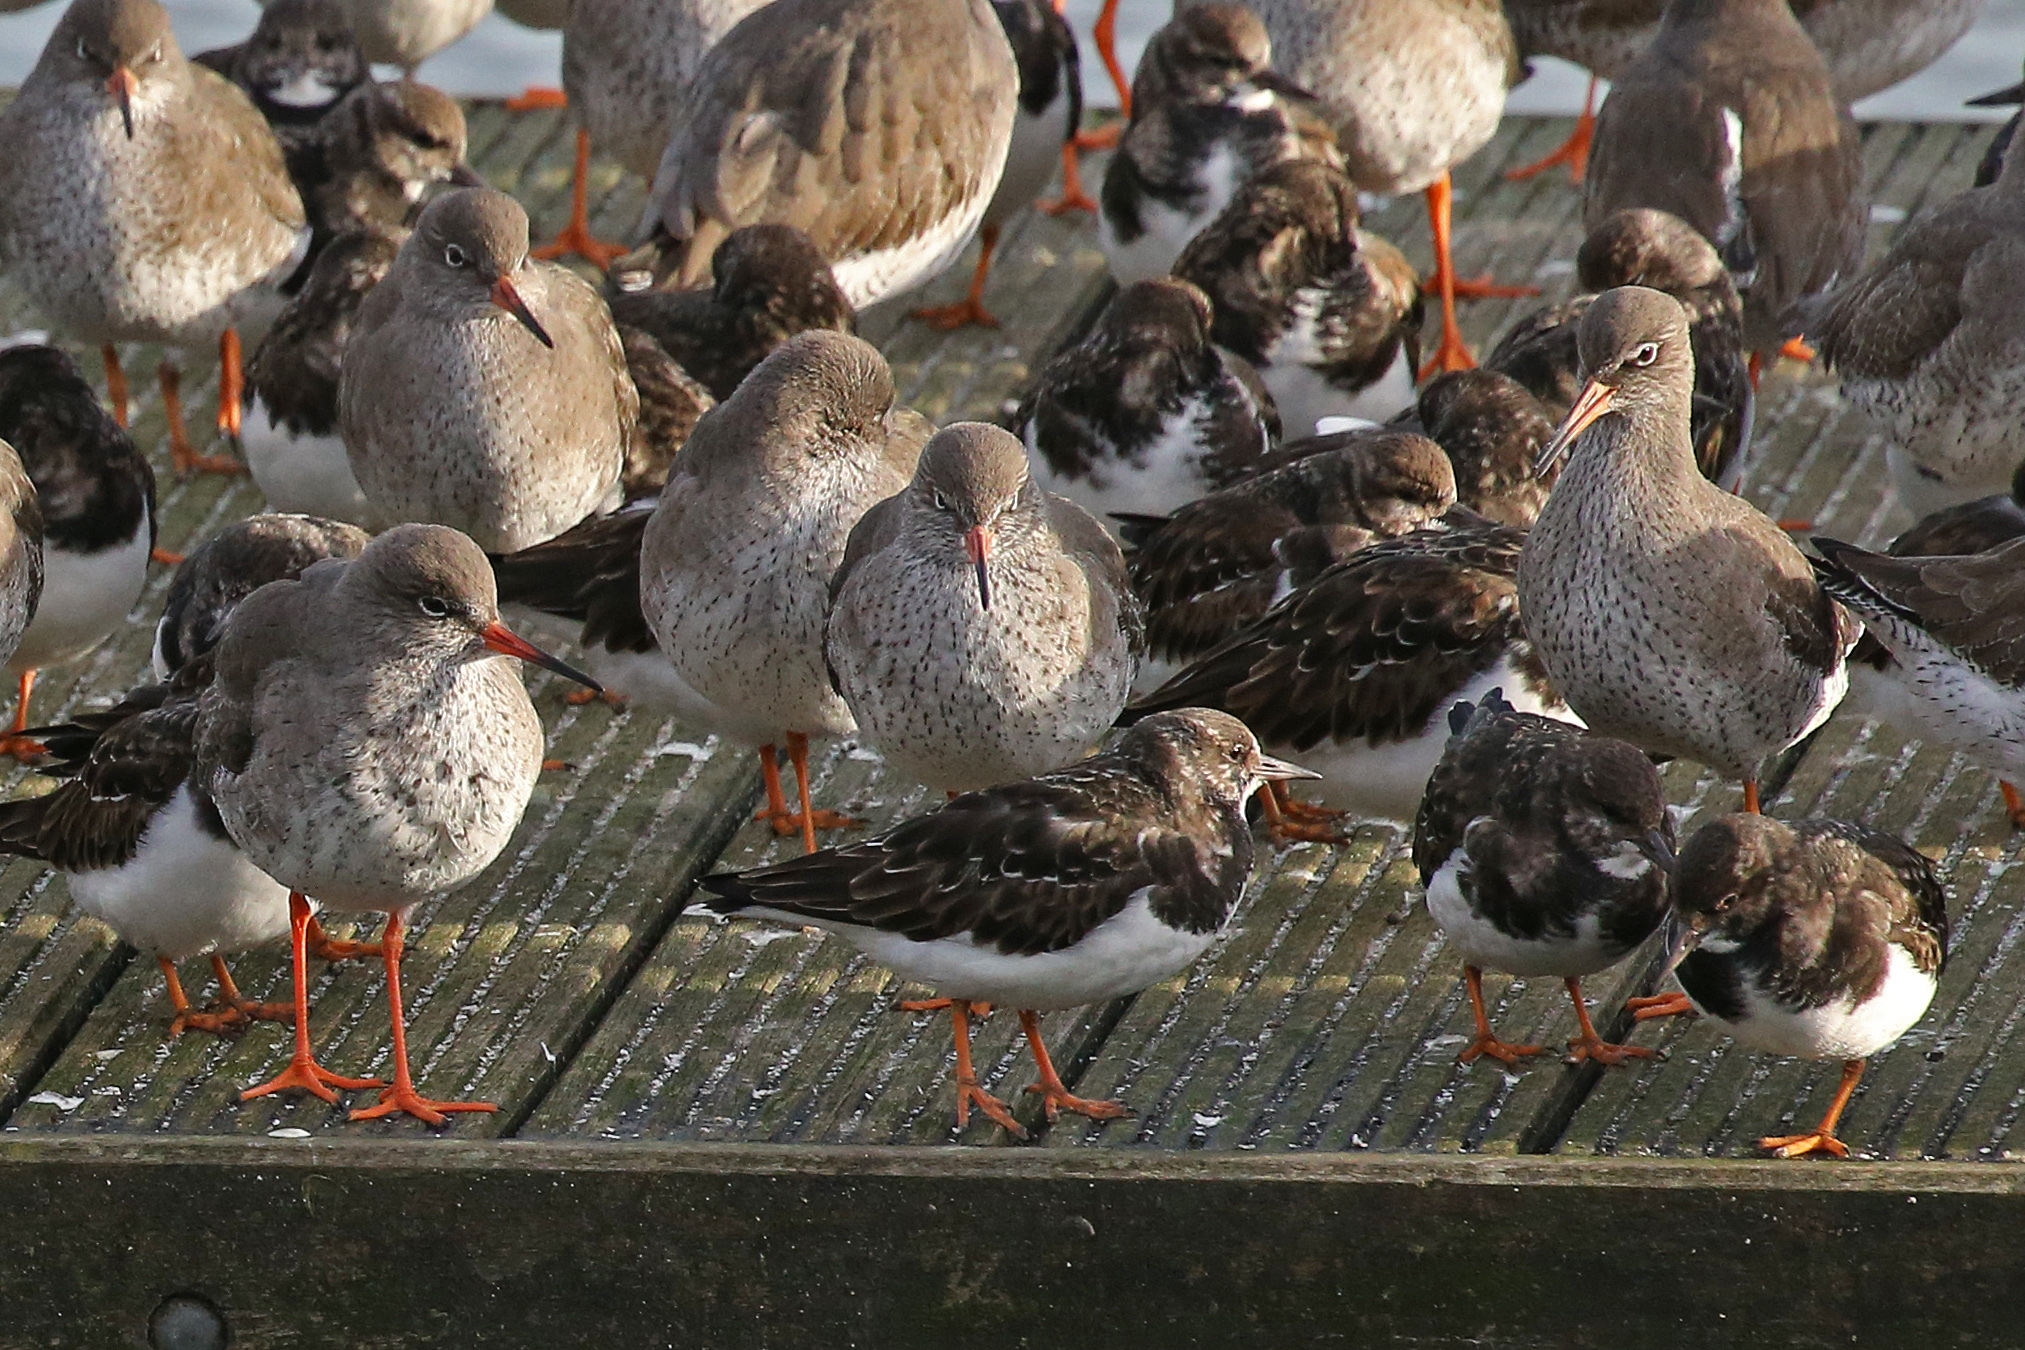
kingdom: Animalia
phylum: Chordata
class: Aves
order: Charadriiformes
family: Scolopacidae
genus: Tringa
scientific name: Tringa totanus
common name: Common redshank
